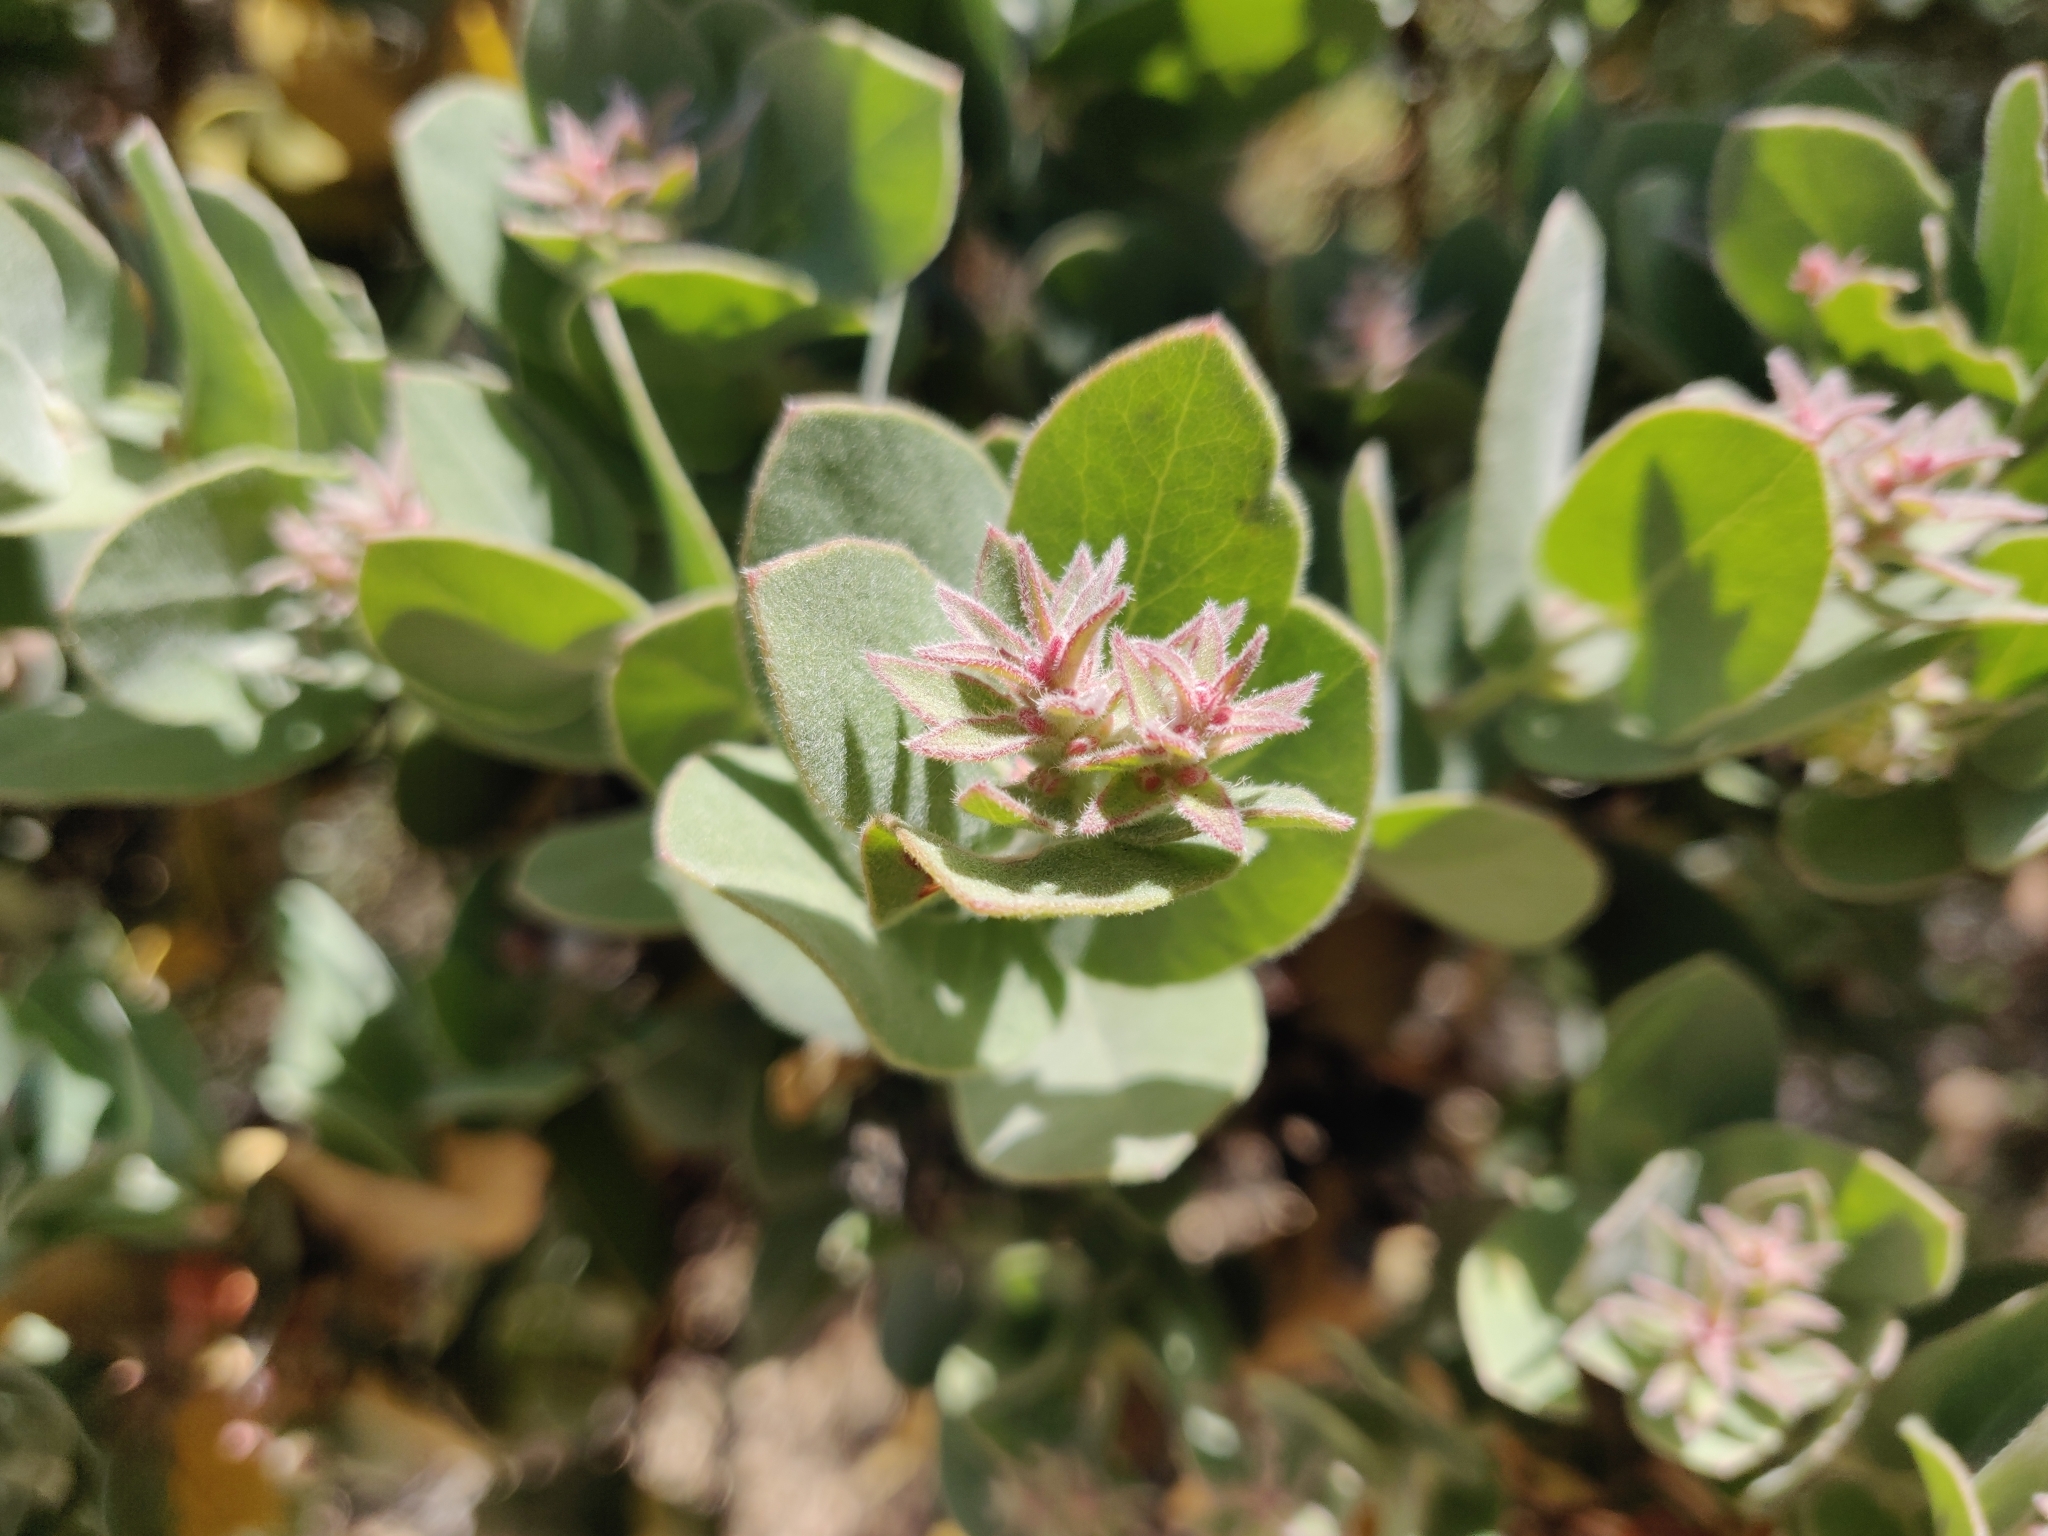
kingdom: Plantae
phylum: Tracheophyta
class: Magnoliopsida
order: Ericales
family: Ericaceae
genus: Arctostaphylos
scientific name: Arctostaphylos auriculata
